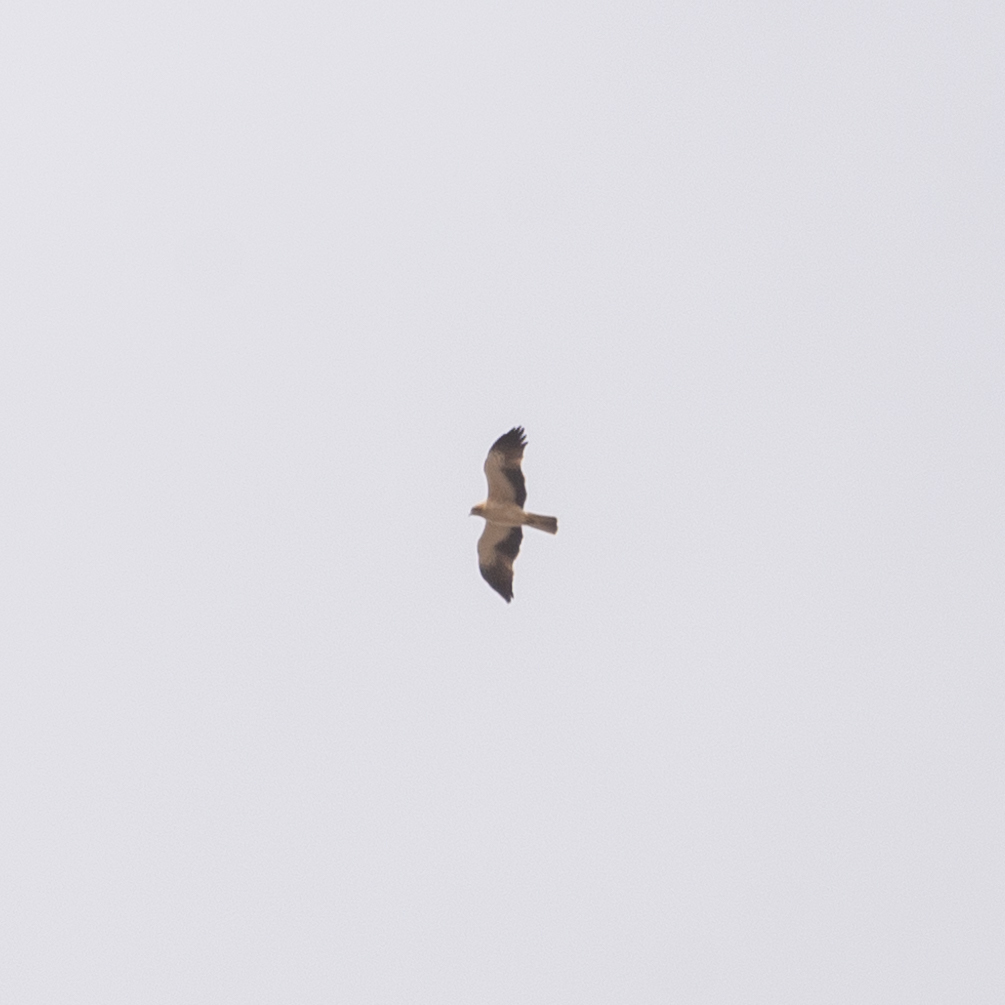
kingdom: Animalia
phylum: Chordata
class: Aves
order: Accipitriformes
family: Accipitridae
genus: Hieraaetus
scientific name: Hieraaetus pennatus
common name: Booted eagle
